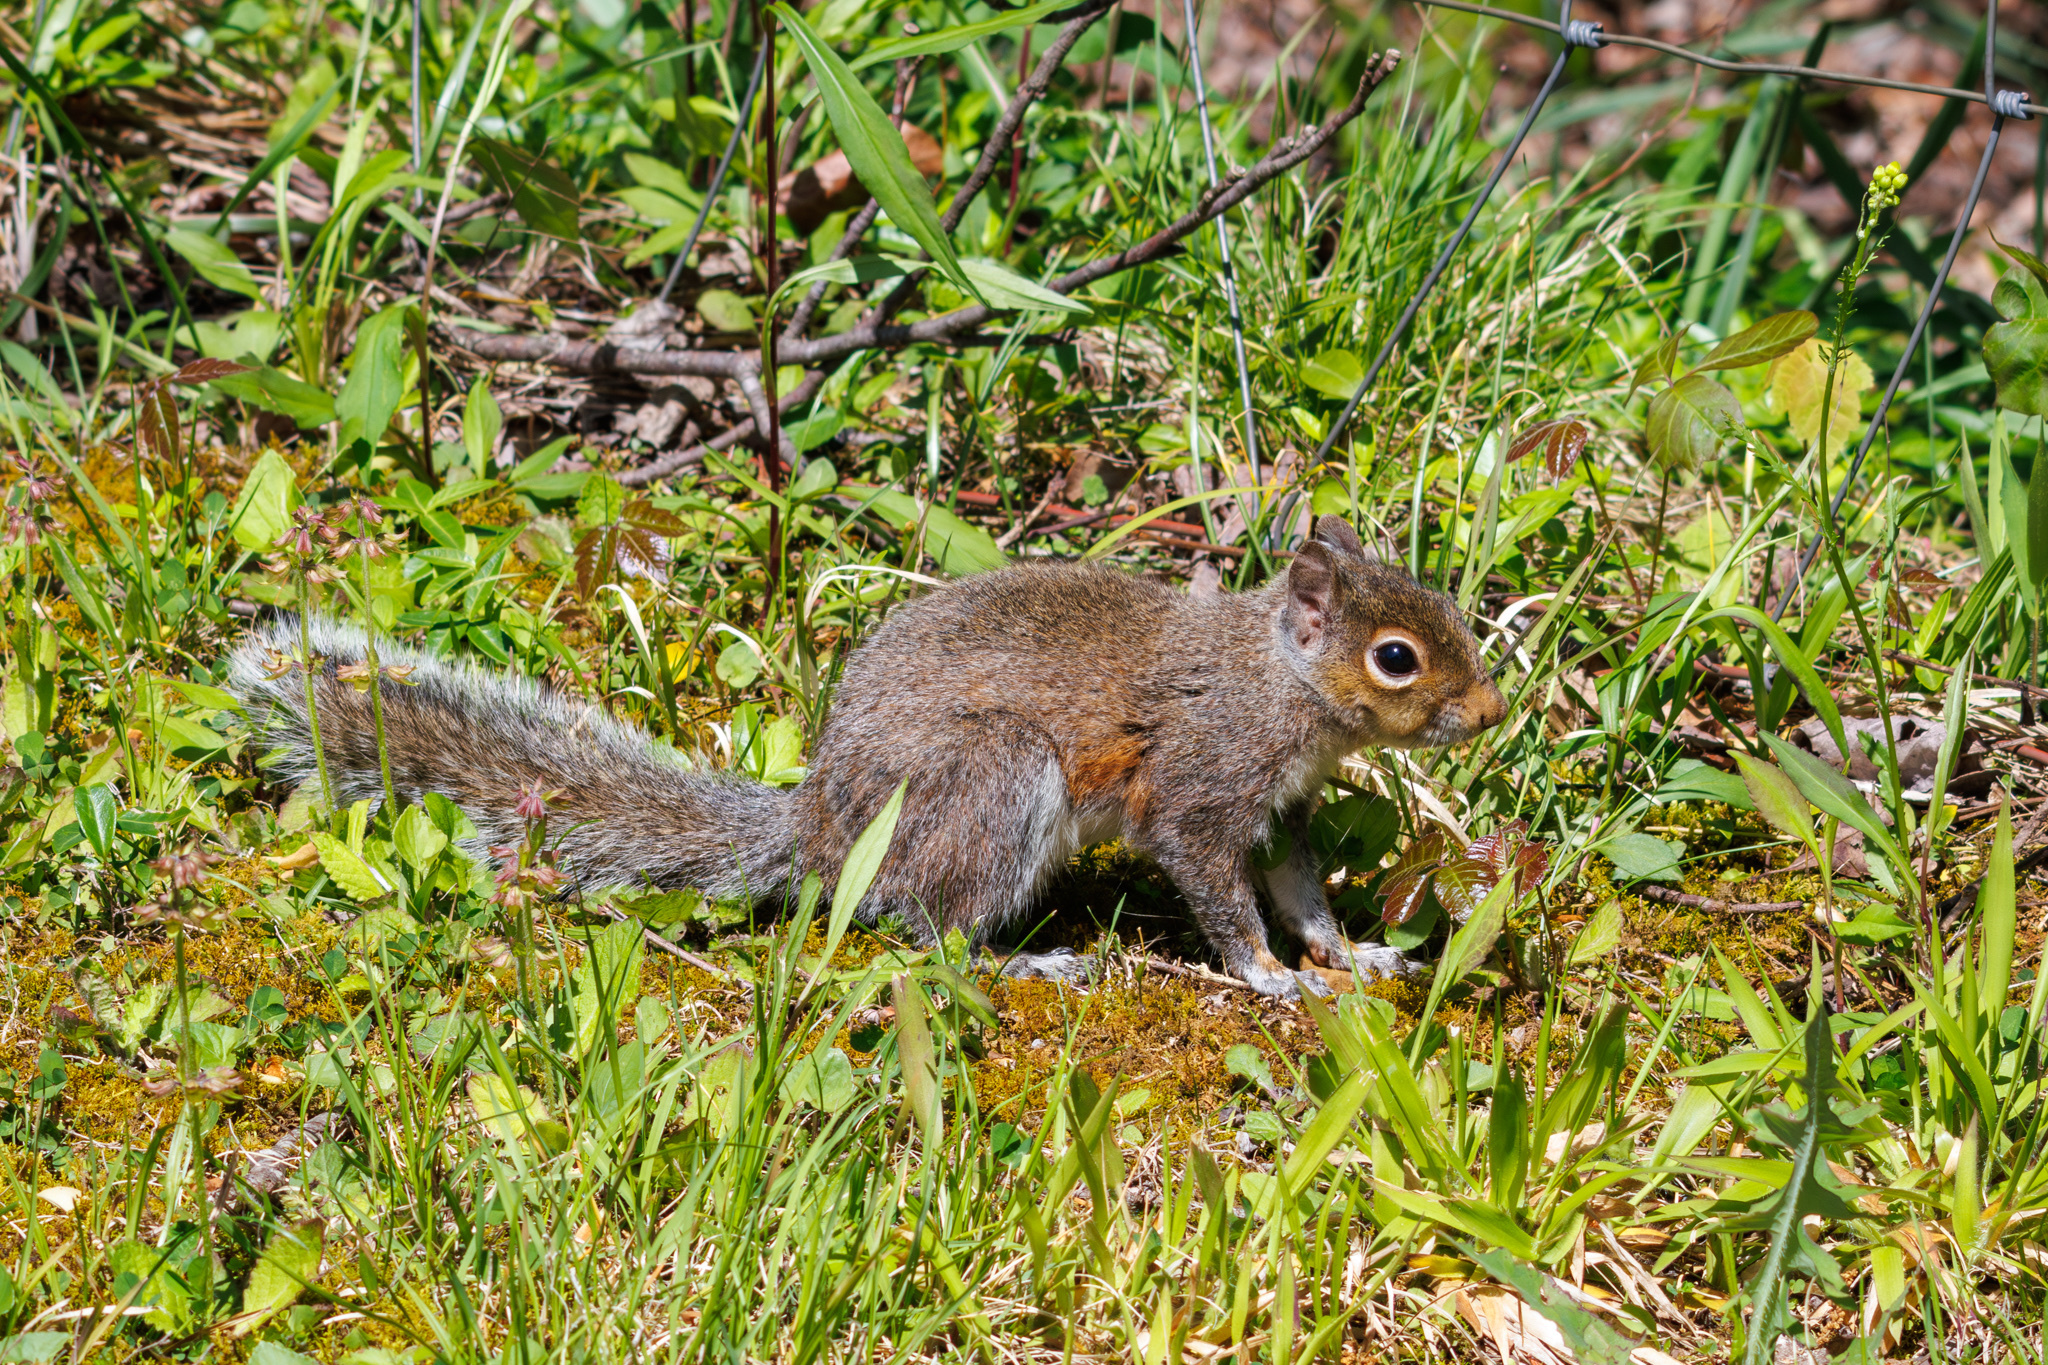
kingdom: Animalia
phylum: Chordata
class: Mammalia
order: Rodentia
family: Sciuridae
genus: Sciurus
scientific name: Sciurus carolinensis
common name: Eastern gray squirrel
